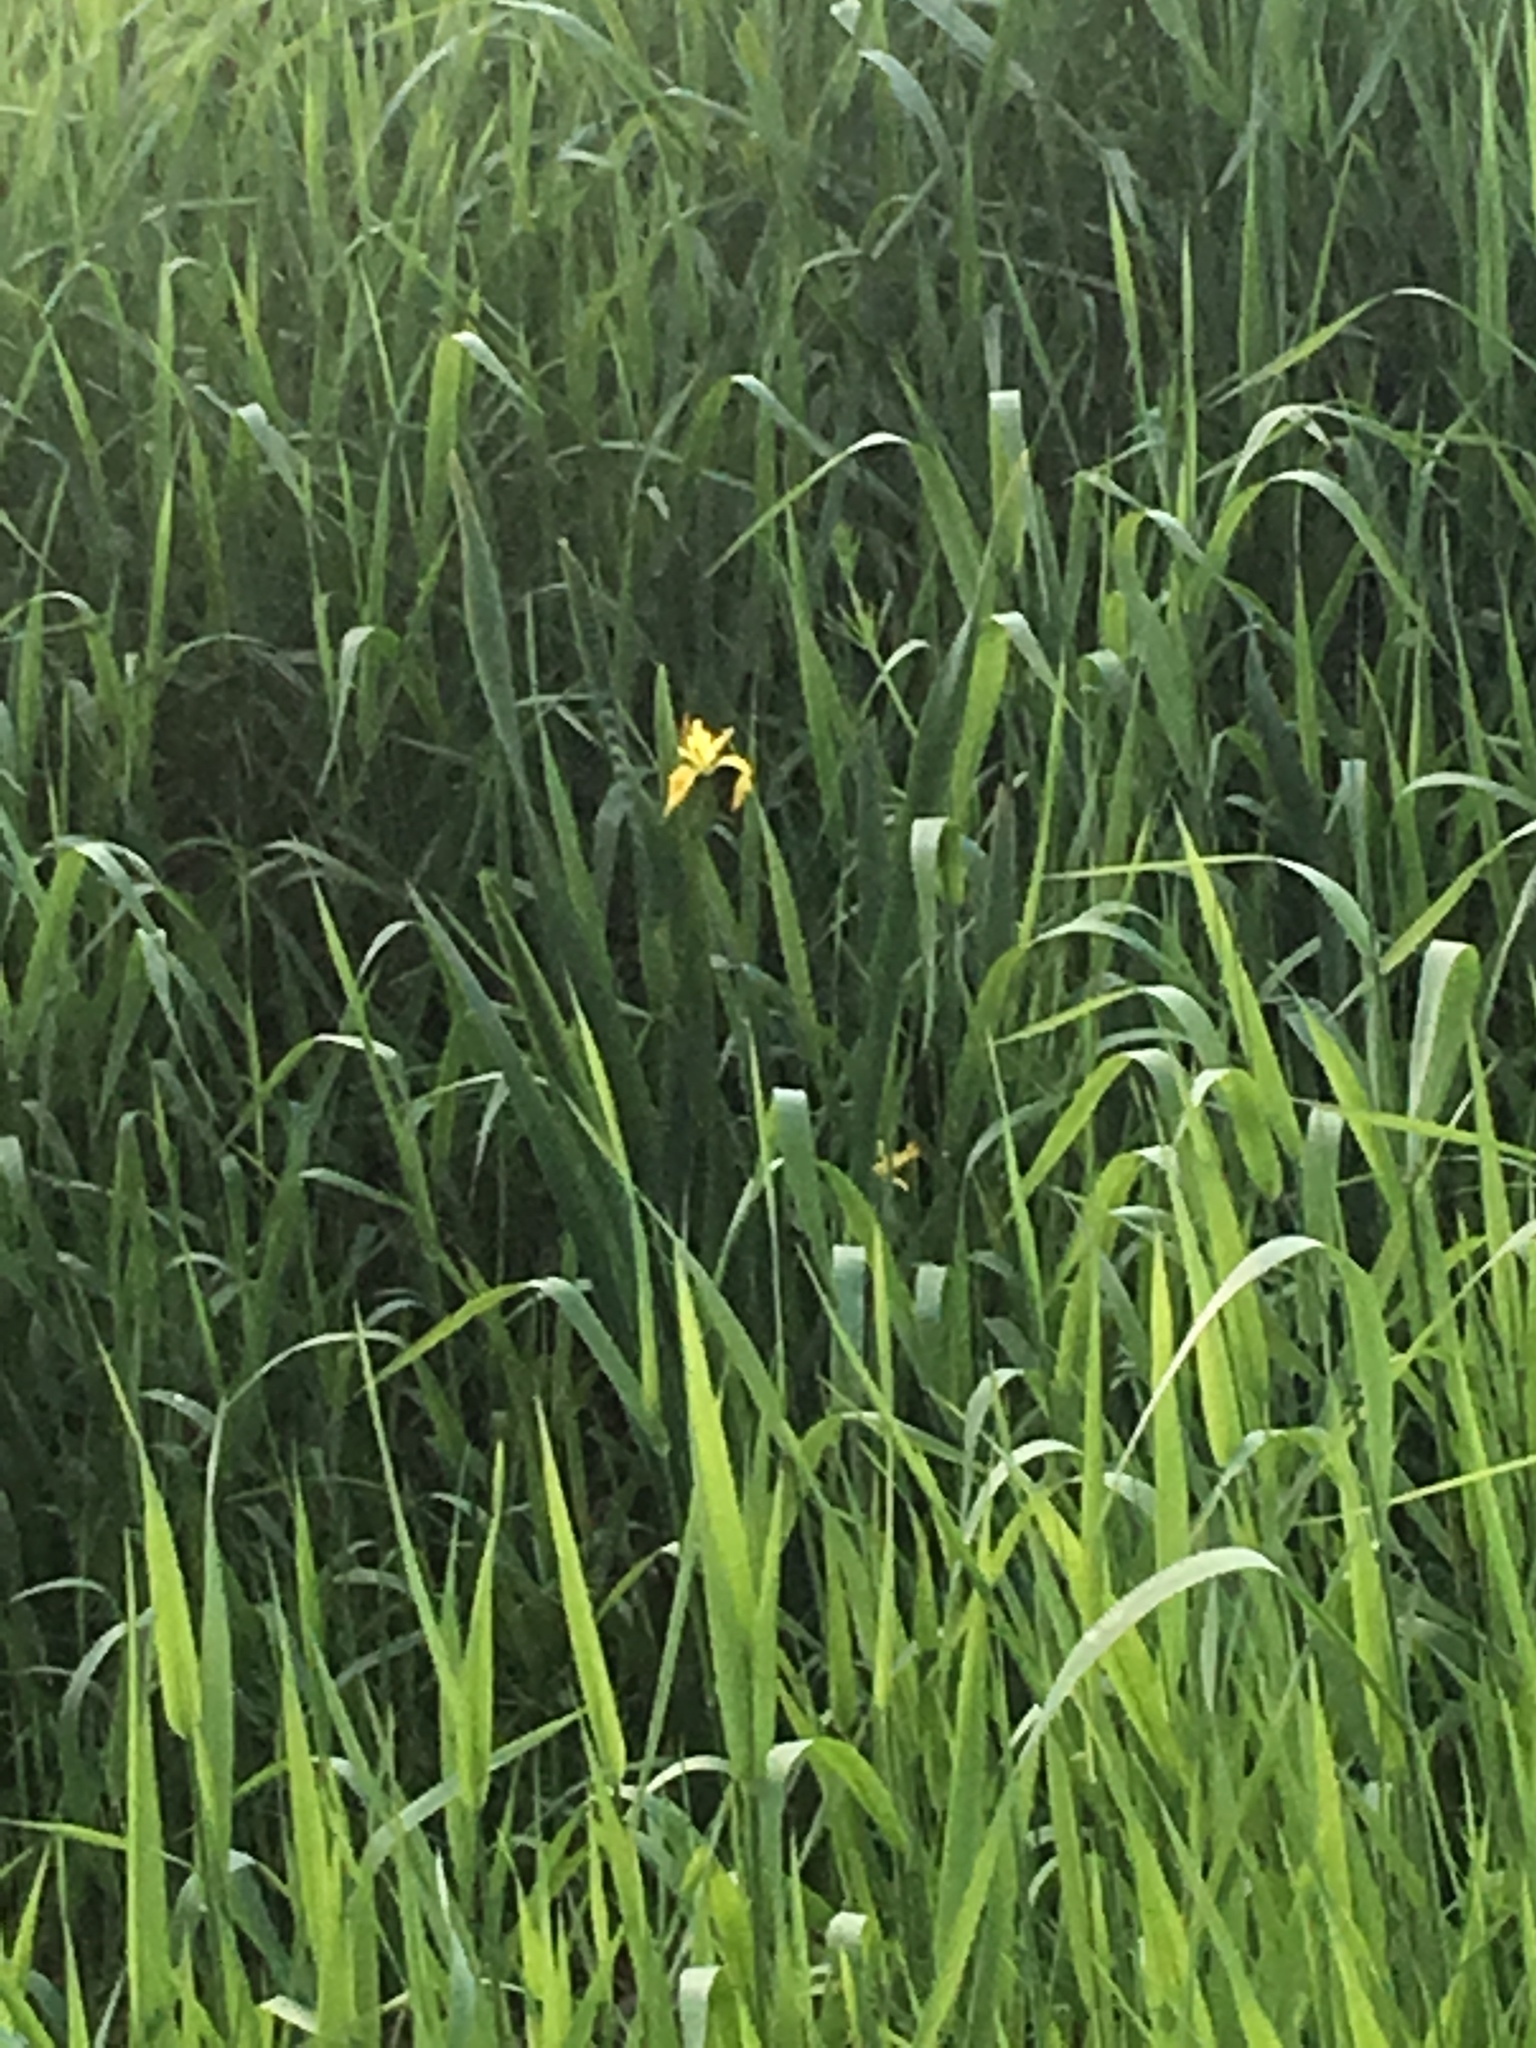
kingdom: Plantae
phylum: Tracheophyta
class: Liliopsida
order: Asparagales
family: Iridaceae
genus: Iris
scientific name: Iris pseudacorus
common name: Yellow flag
